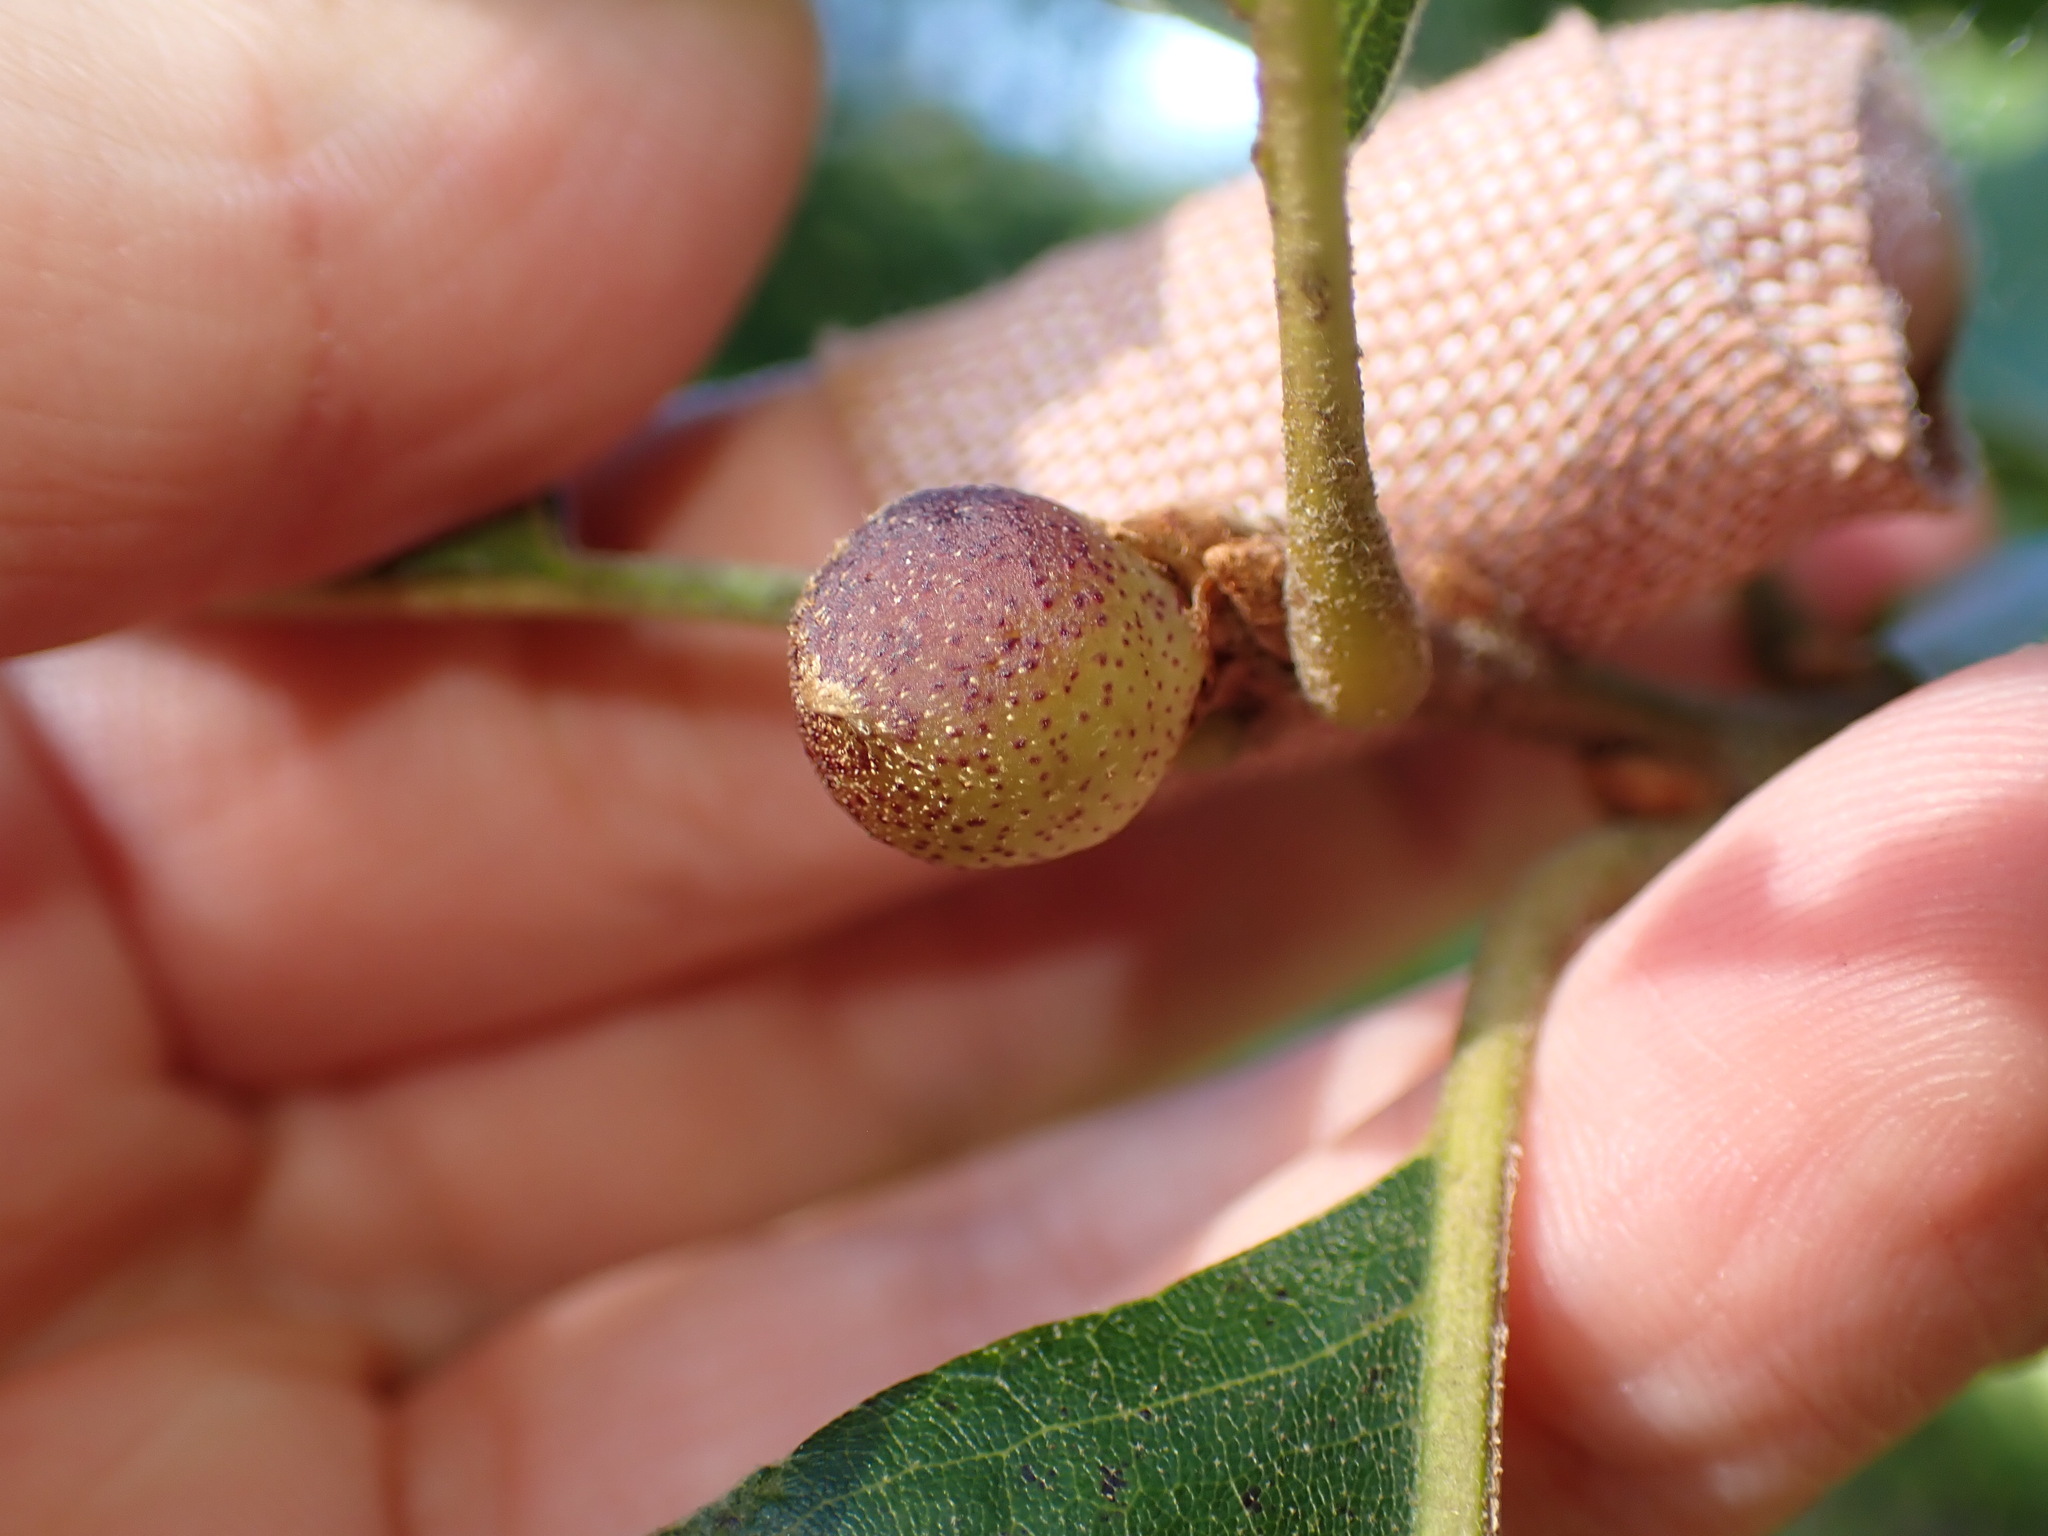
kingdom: Animalia
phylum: Arthropoda
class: Insecta
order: Hymenoptera
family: Cynipidae
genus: Amphibolips
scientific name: Amphibolips
